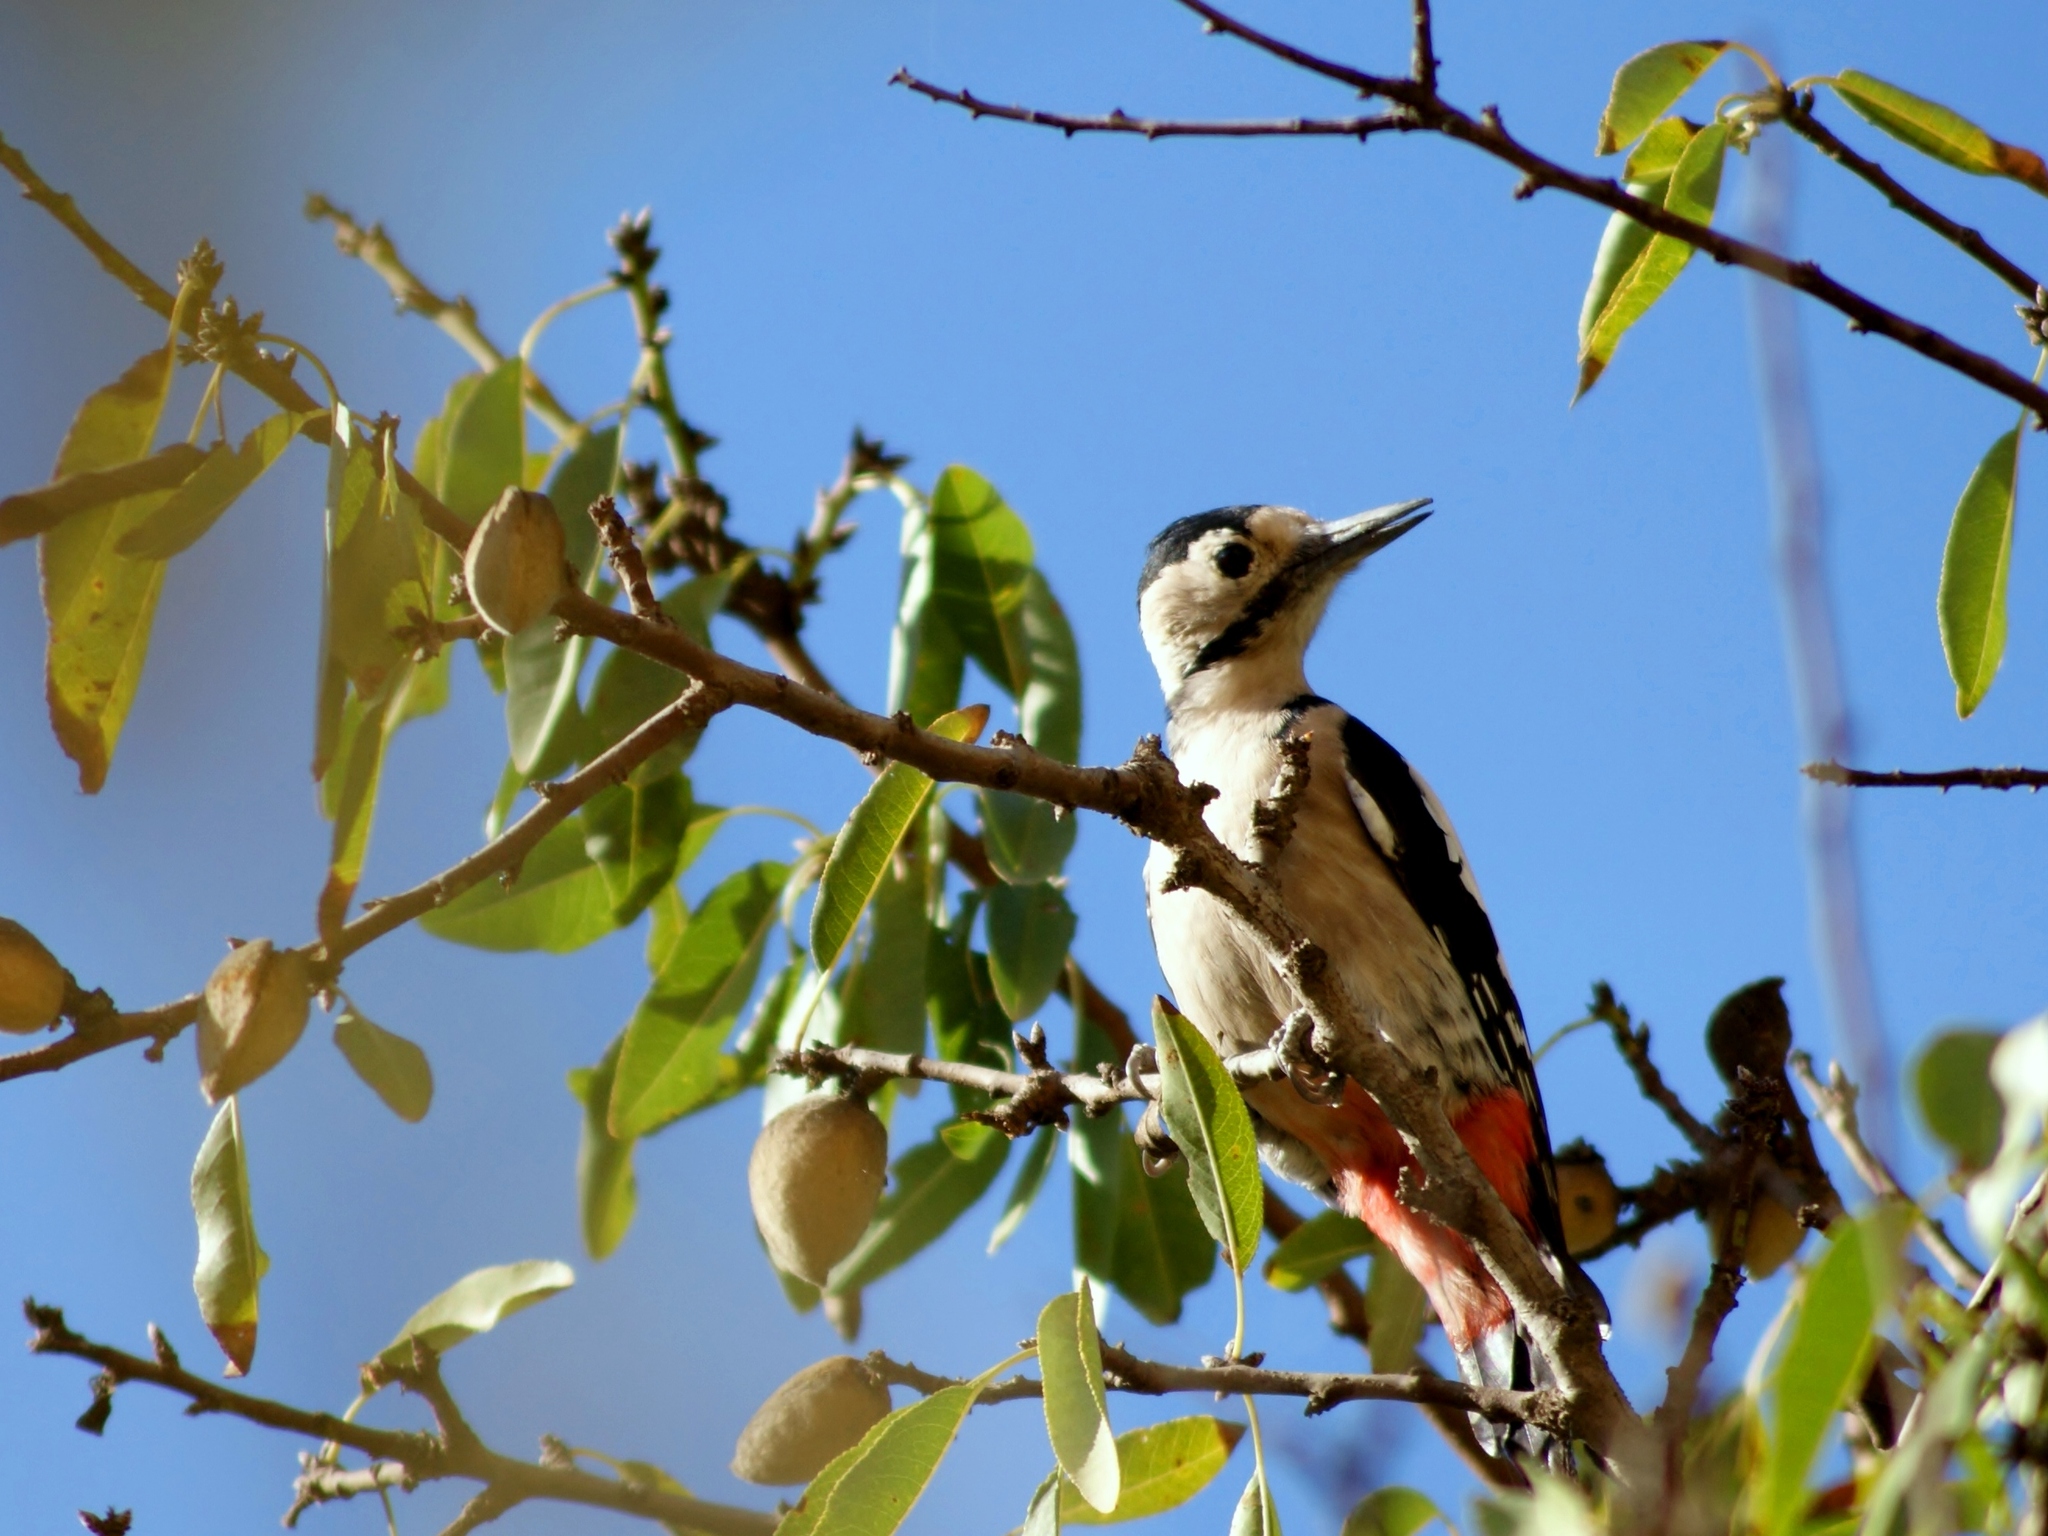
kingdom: Animalia
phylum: Chordata
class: Aves
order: Piciformes
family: Picidae
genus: Dendrocopos
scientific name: Dendrocopos syriacus
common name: Syrian woodpecker
